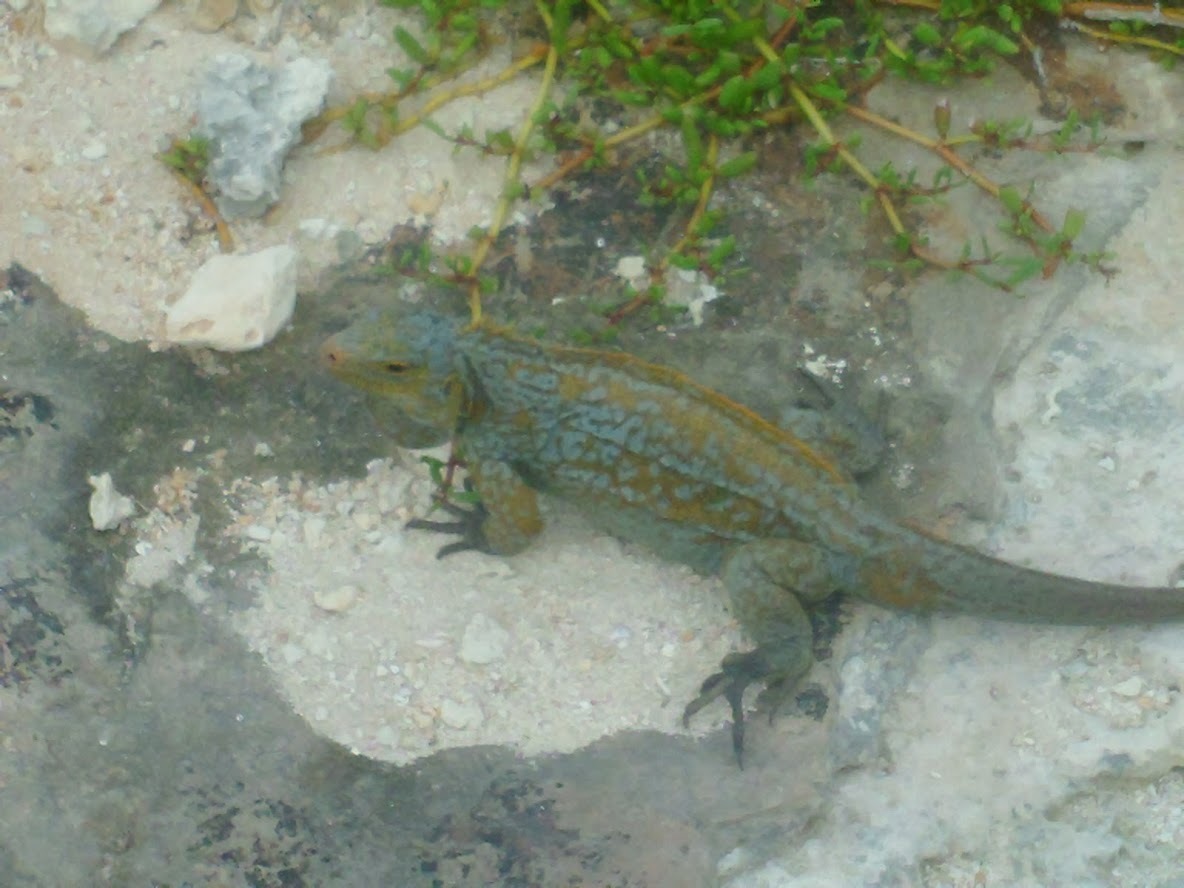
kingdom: Animalia
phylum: Chordata
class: Squamata
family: Iguanidae
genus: Cyclura
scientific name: Cyclura rileyi
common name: Acklin's ground iguana
